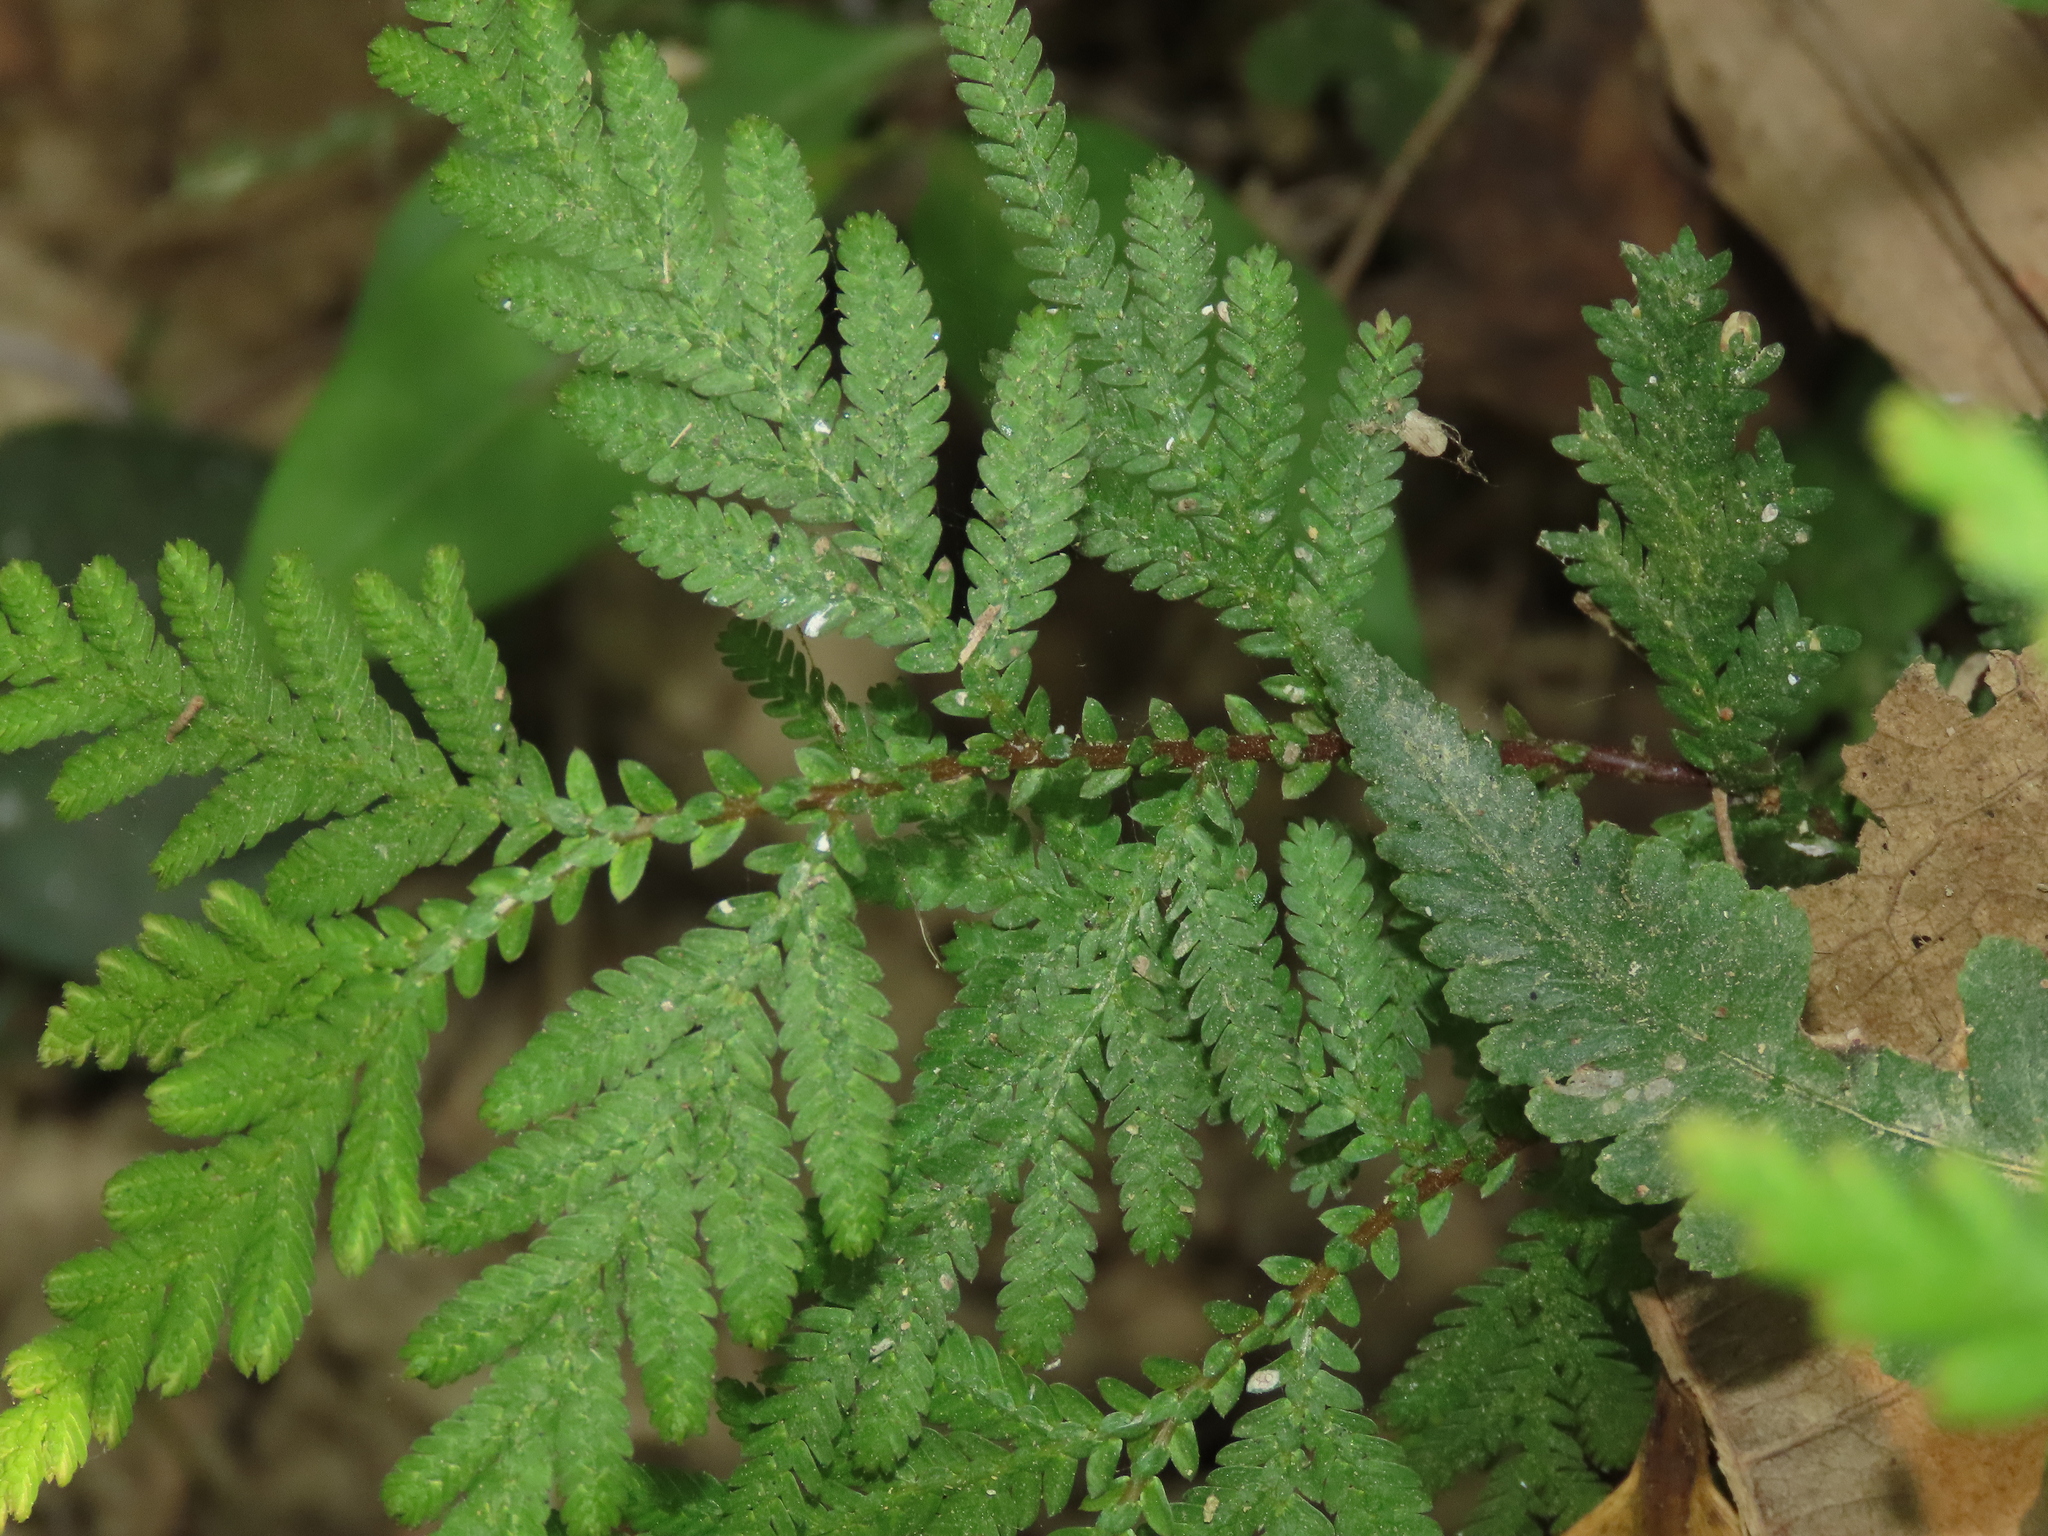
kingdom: Plantae
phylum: Tracheophyta
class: Lycopodiopsida
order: Selaginellales
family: Selaginellaceae
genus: Selaginella
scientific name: Selaginella delicatula
